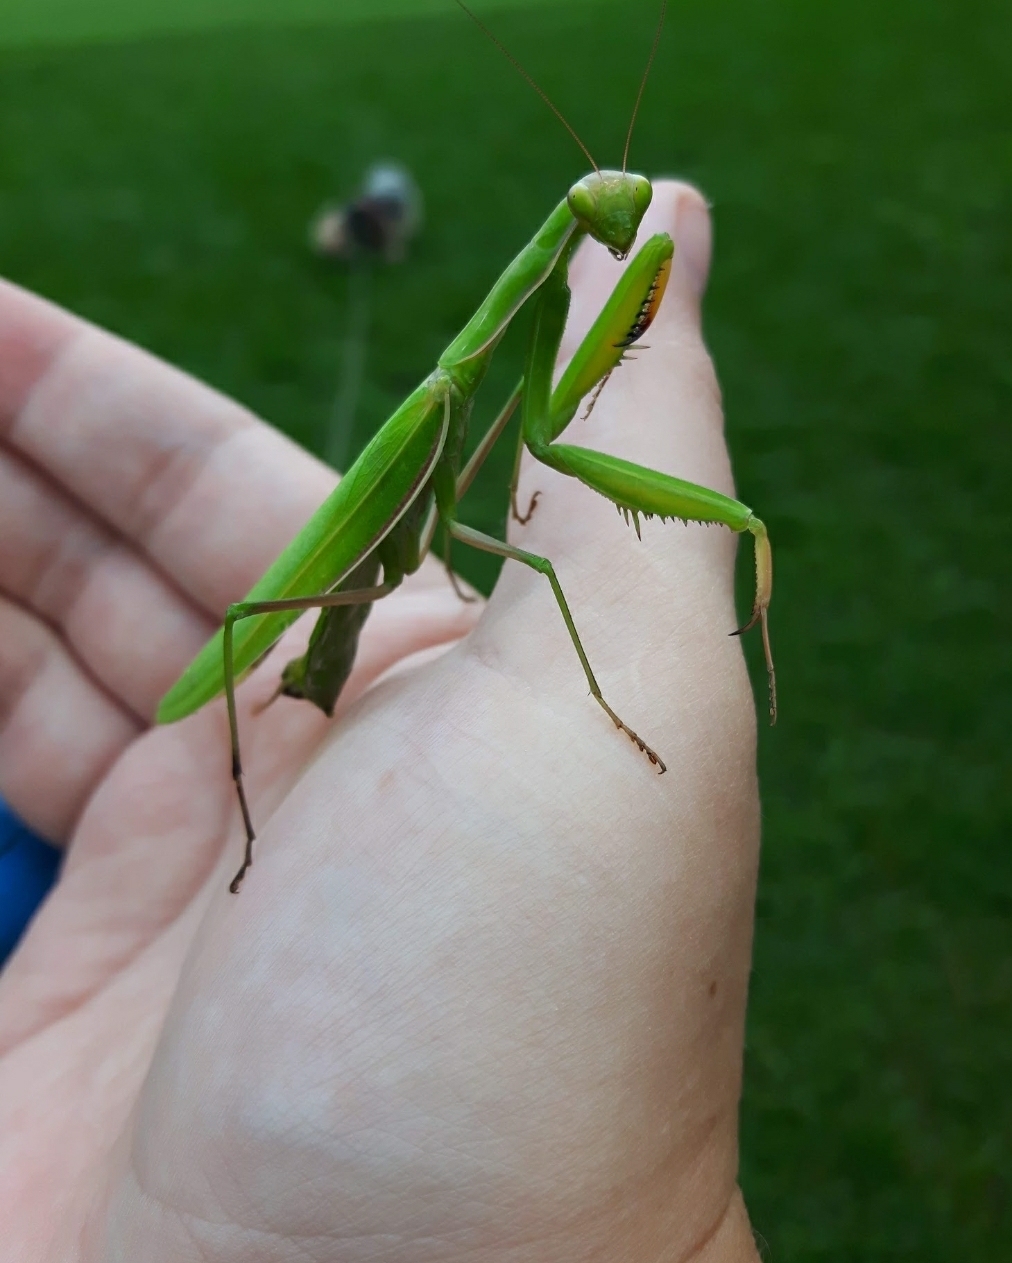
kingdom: Animalia
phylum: Arthropoda
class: Insecta
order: Mantodea
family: Mantidae
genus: Mantis
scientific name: Mantis religiosa
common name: Praying mantis
